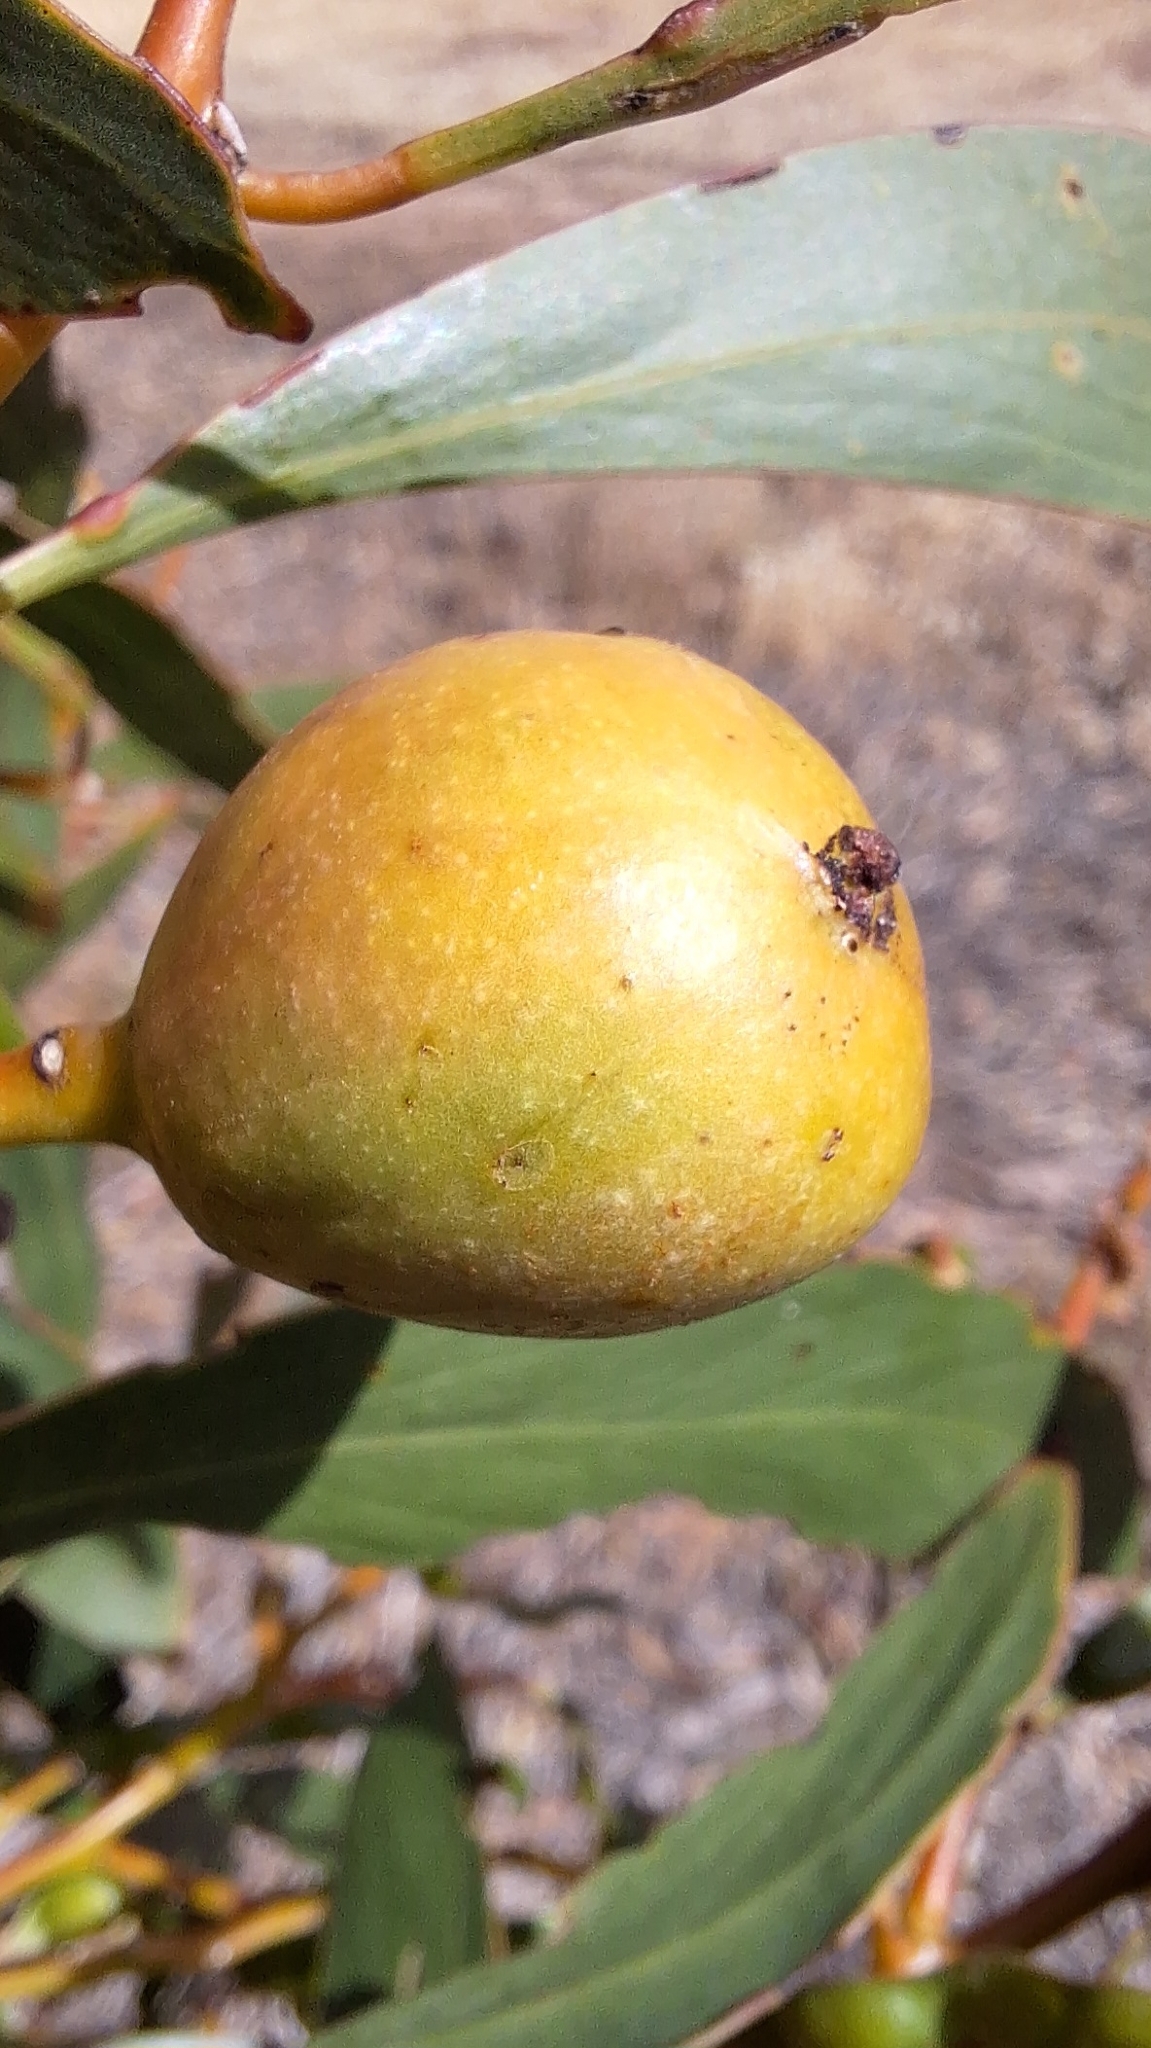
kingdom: Animalia
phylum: Arthropoda
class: Insecta
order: Hymenoptera
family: Pteromalidae
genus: Trichilogaster
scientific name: Trichilogaster signiventris
